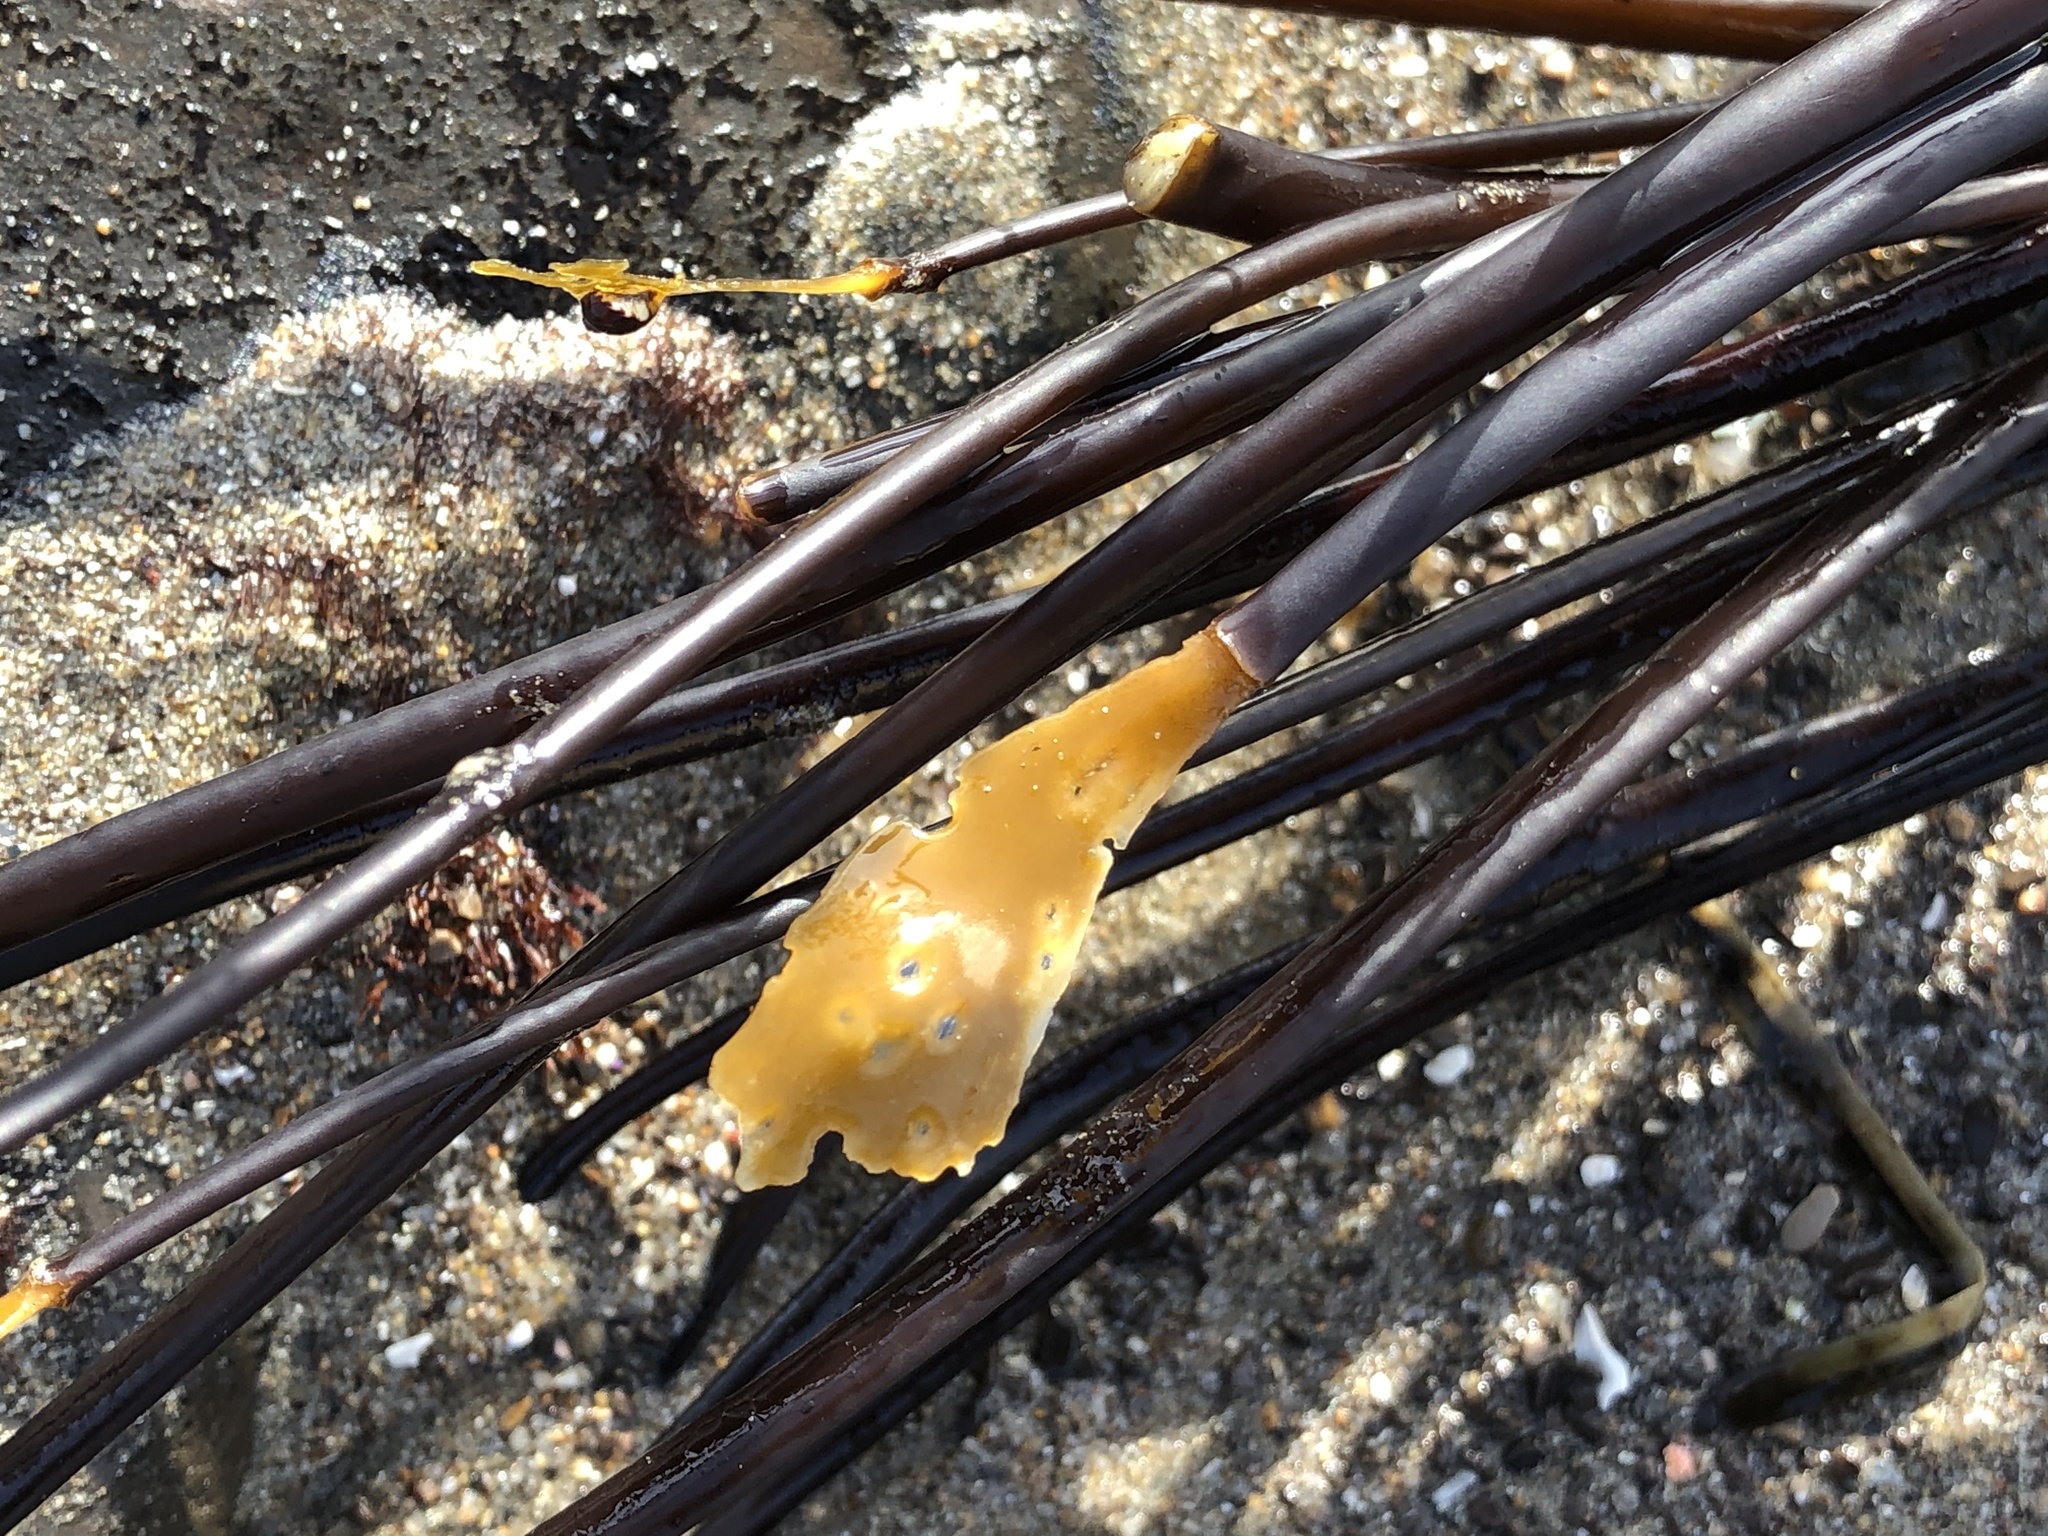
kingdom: Chromista
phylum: Ochrophyta
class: Phaeophyceae
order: Laminariales
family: Laminariaceae
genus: Laminaria
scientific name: Laminaria sinclairii
